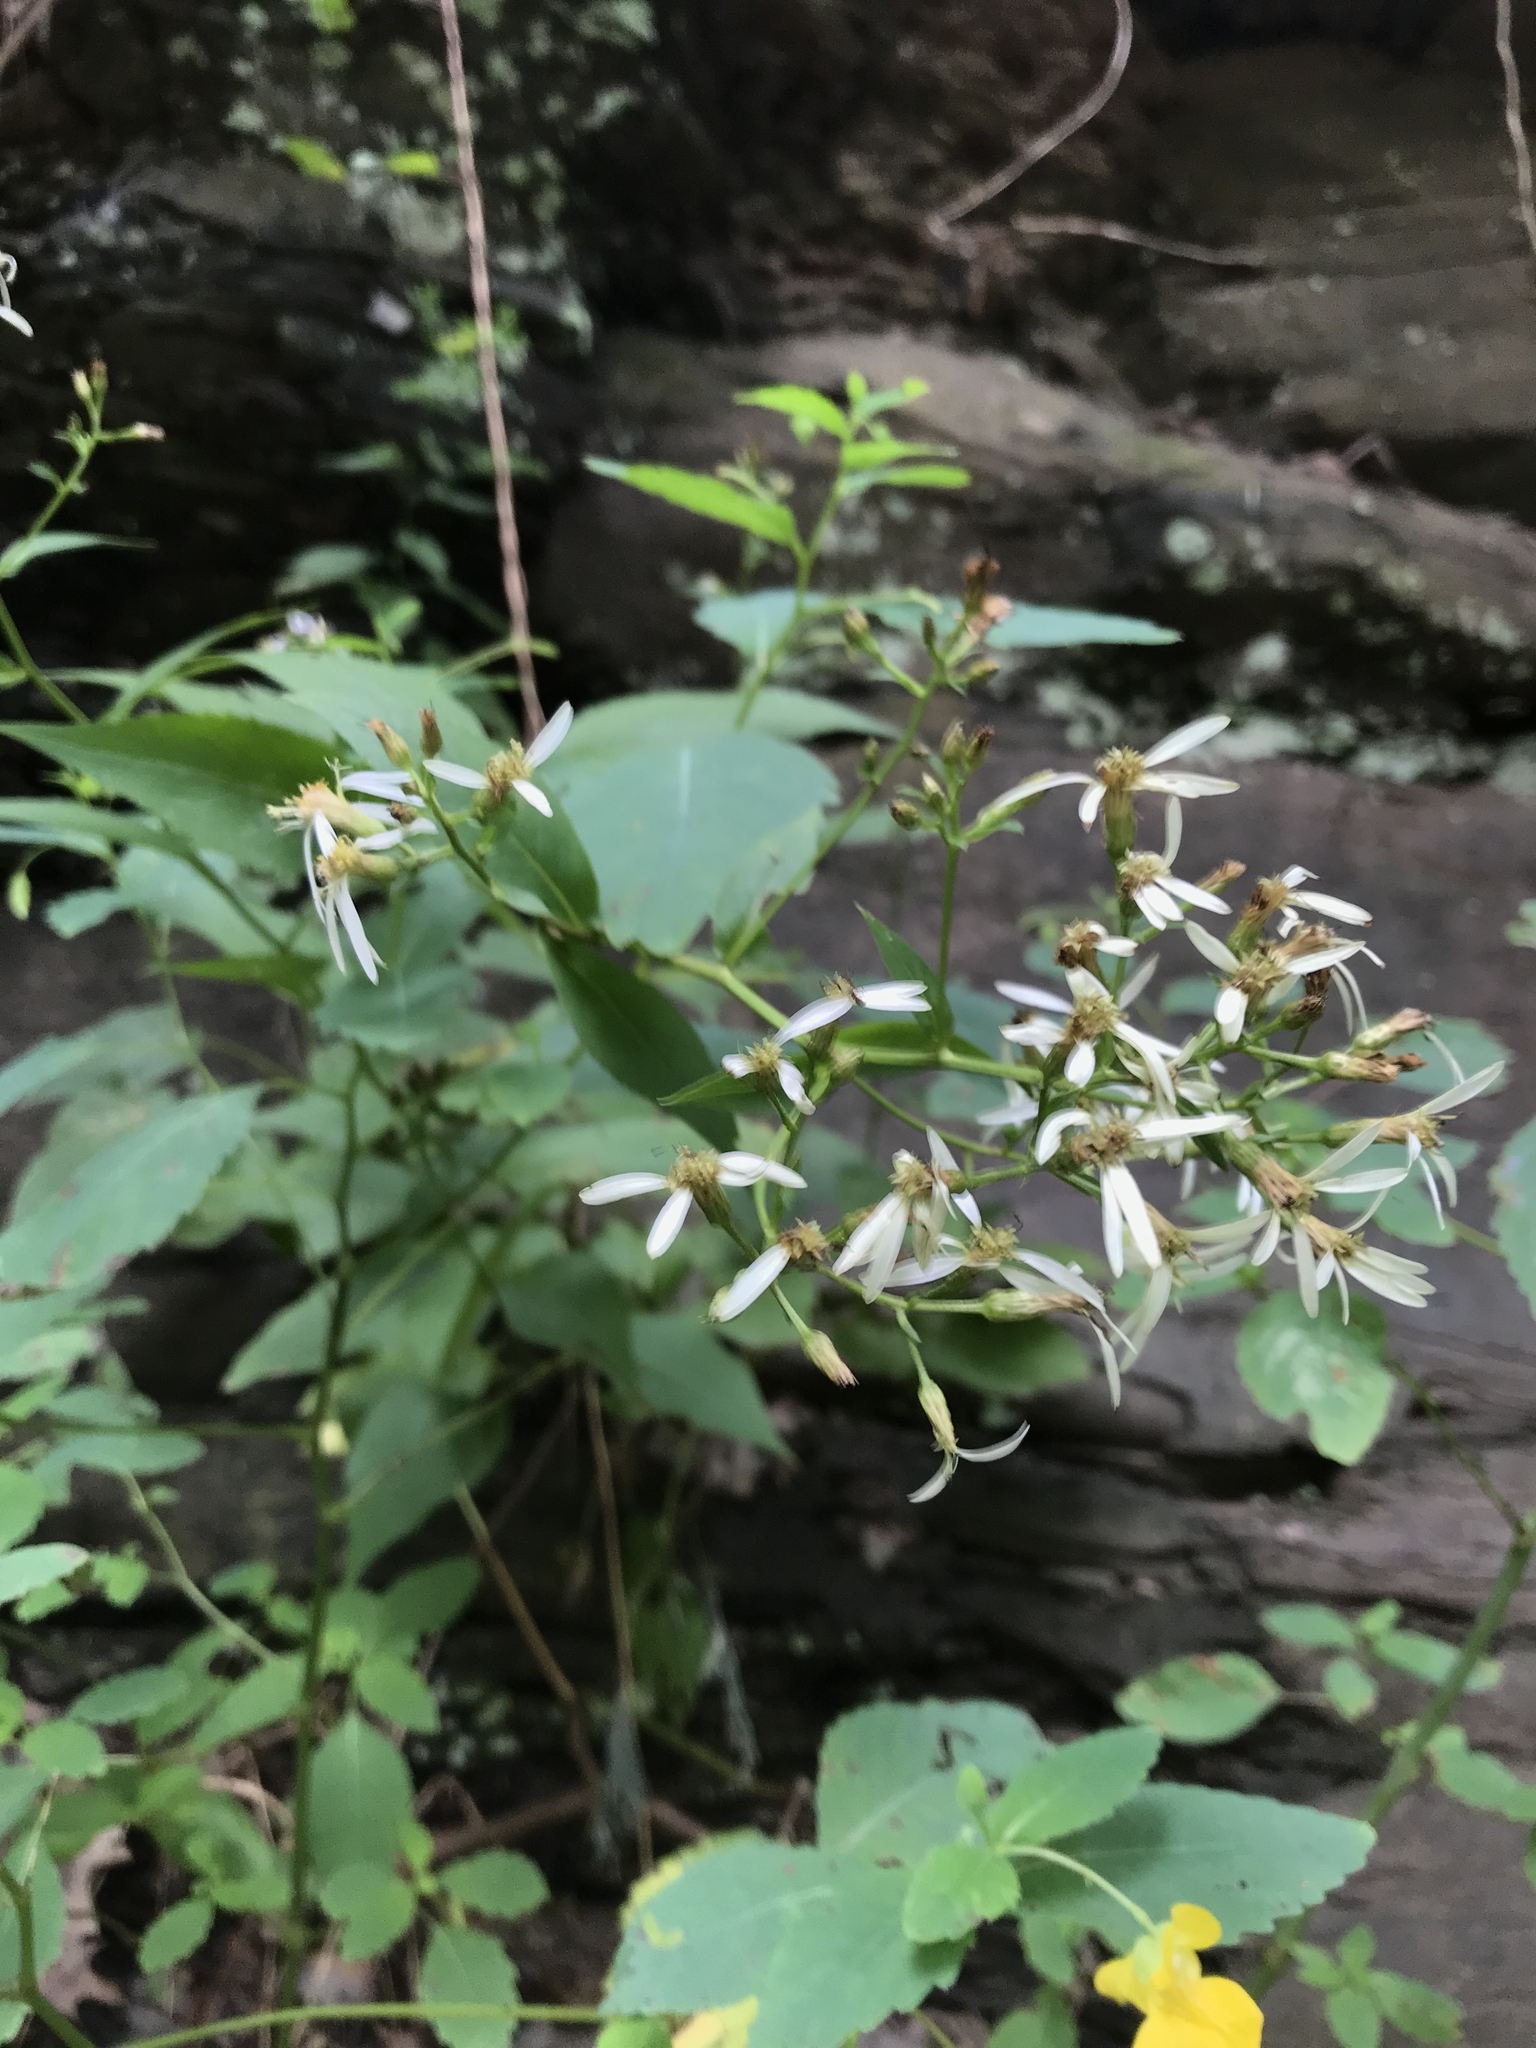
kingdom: Plantae
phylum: Tracheophyta
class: Magnoliopsida
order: Asterales
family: Asteraceae
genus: Eurybia
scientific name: Eurybia divaricata
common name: White wood aster
